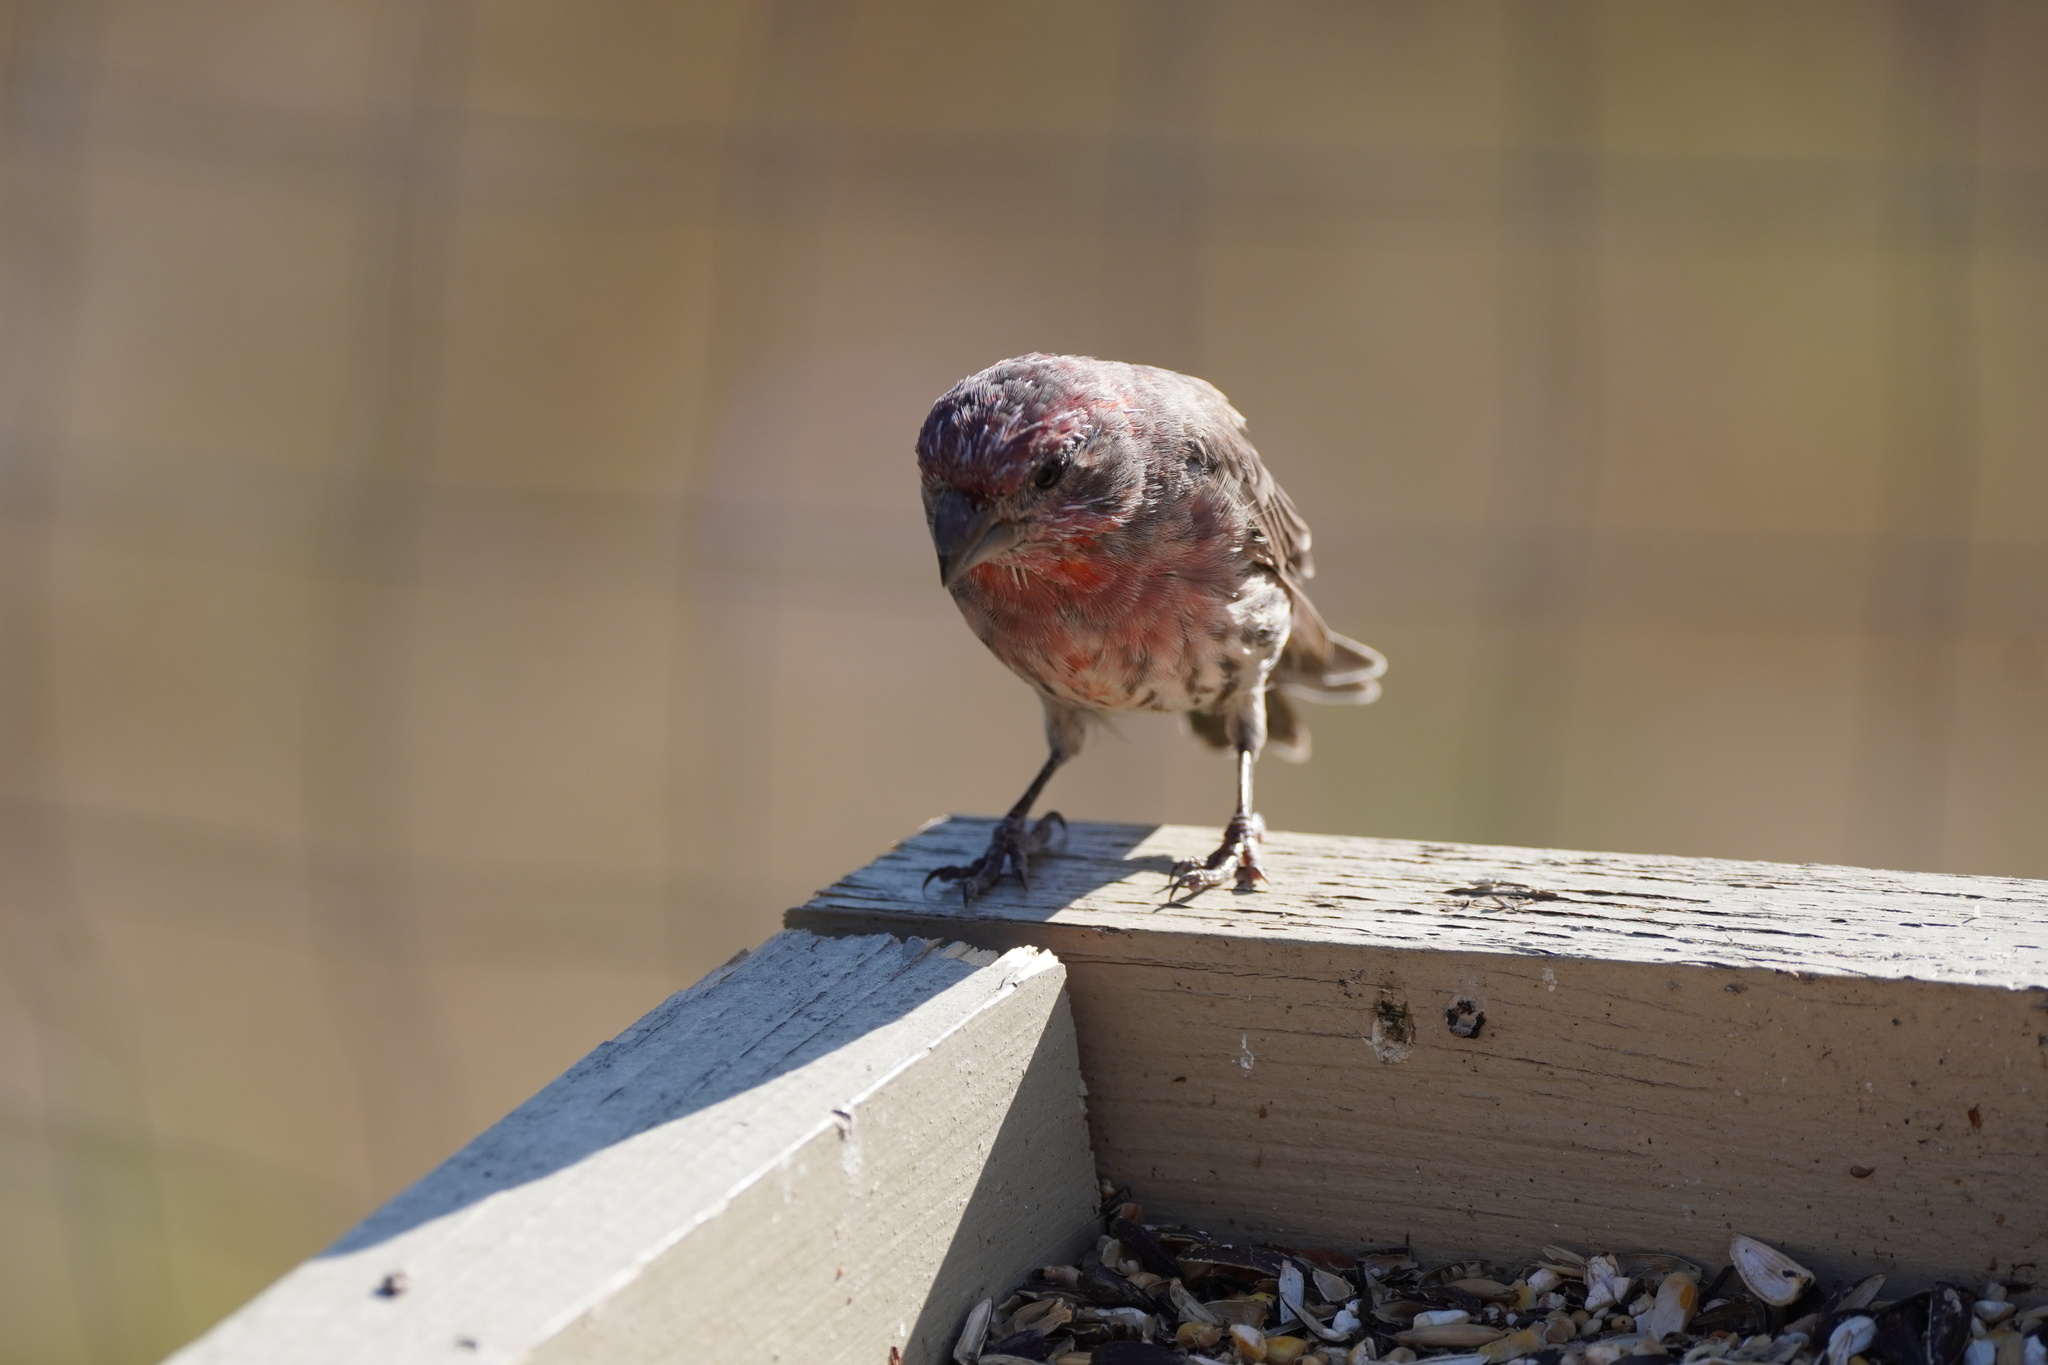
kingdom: Animalia
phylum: Chordata
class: Aves
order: Passeriformes
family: Fringillidae
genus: Haemorhous
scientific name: Haemorhous mexicanus
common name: House finch
